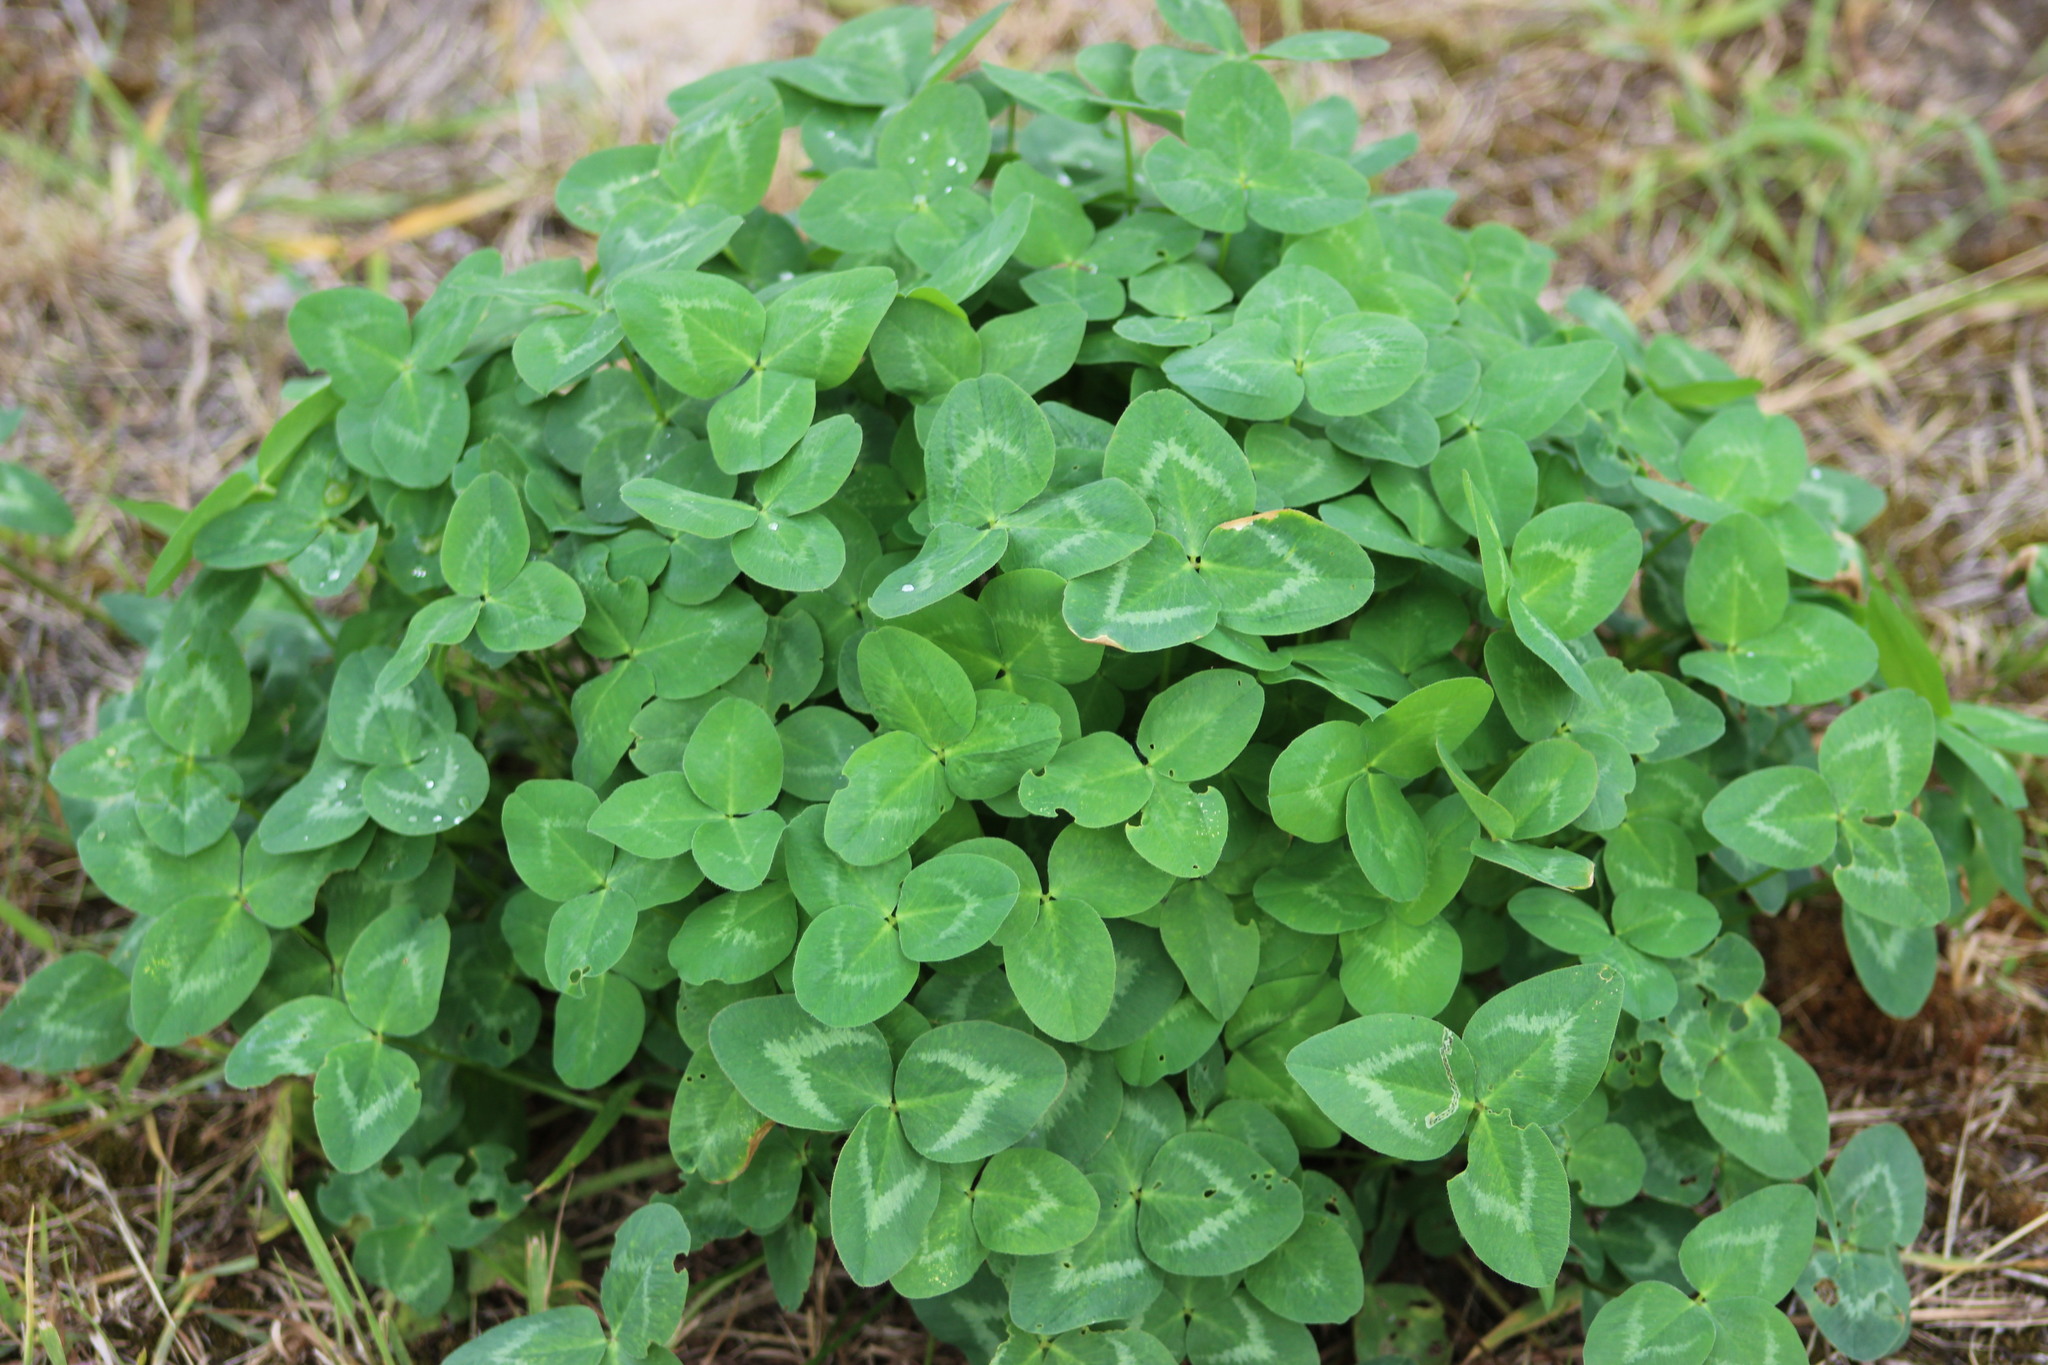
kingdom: Plantae
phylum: Tracheophyta
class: Magnoliopsida
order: Fabales
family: Fabaceae
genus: Trifolium
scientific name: Trifolium pratense
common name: Red clover
